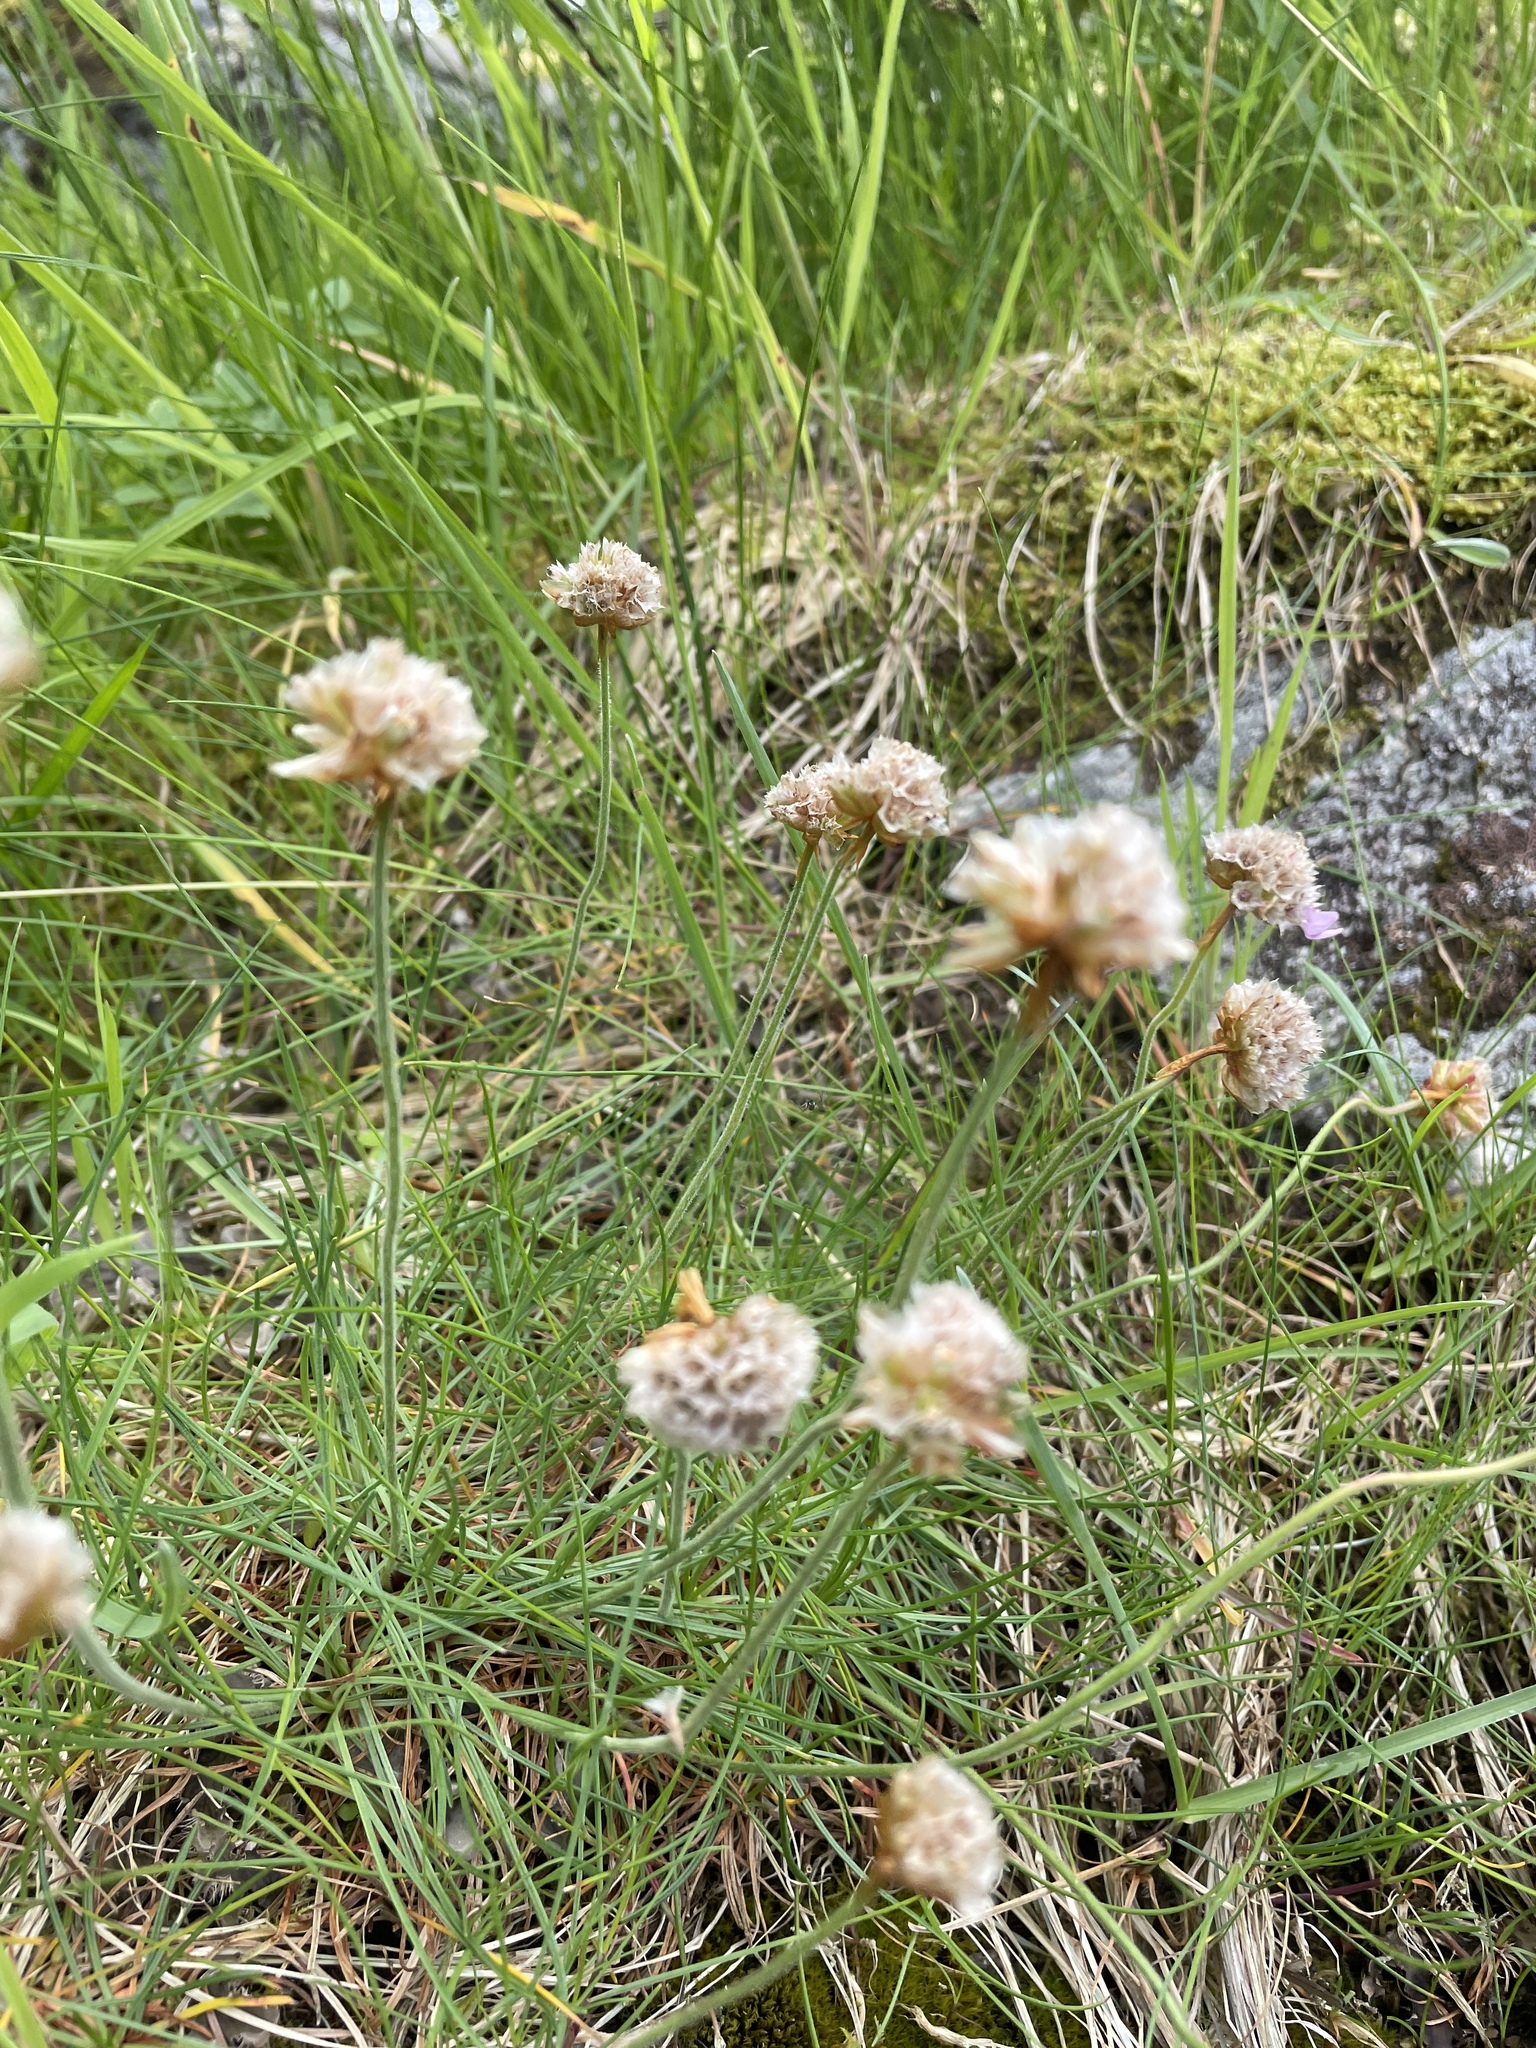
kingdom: Plantae
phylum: Tracheophyta
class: Magnoliopsida
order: Caryophyllales
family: Plumbaginaceae
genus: Armeria
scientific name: Armeria maritima
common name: Thrift
